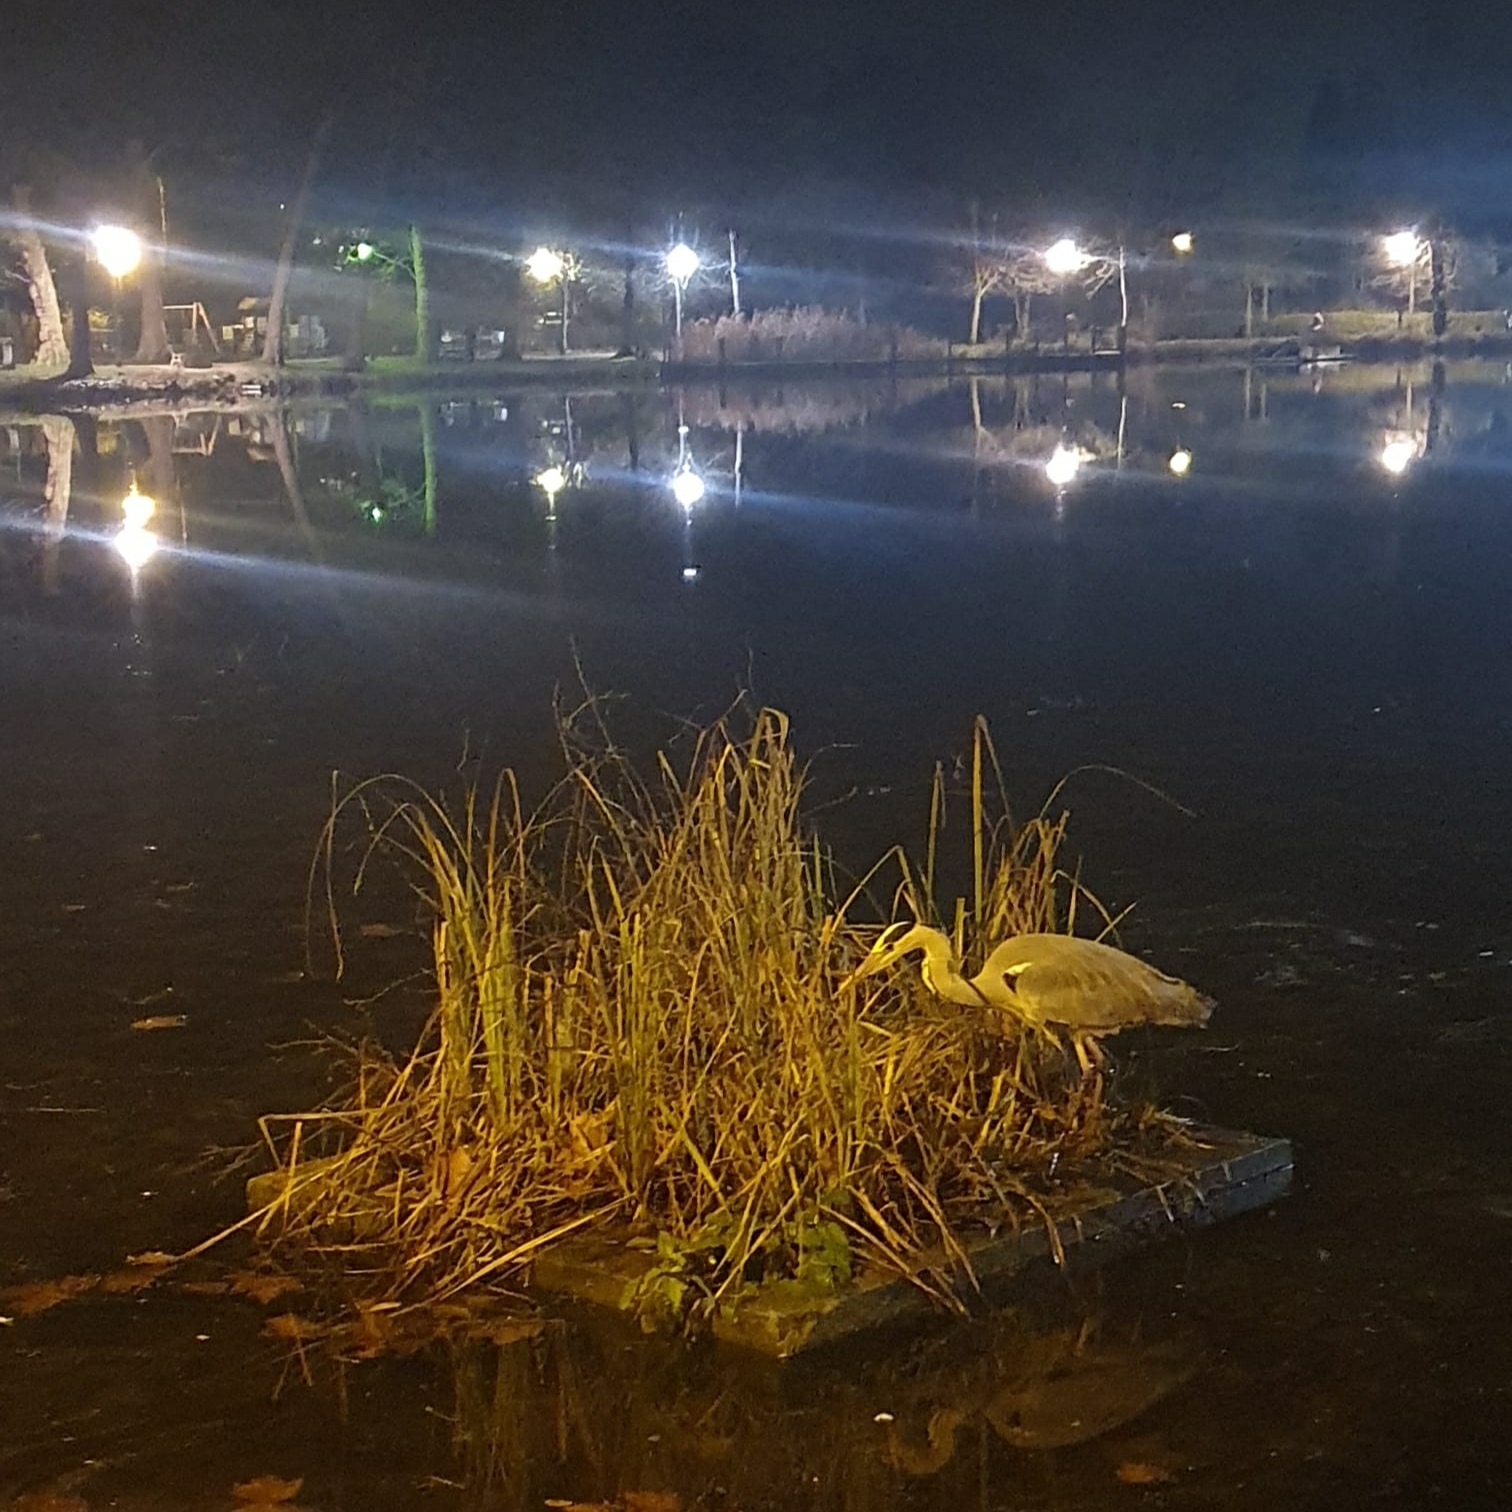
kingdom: Animalia
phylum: Chordata
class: Aves
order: Pelecaniformes
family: Ardeidae
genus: Ardea
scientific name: Ardea cinerea
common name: Grey heron
